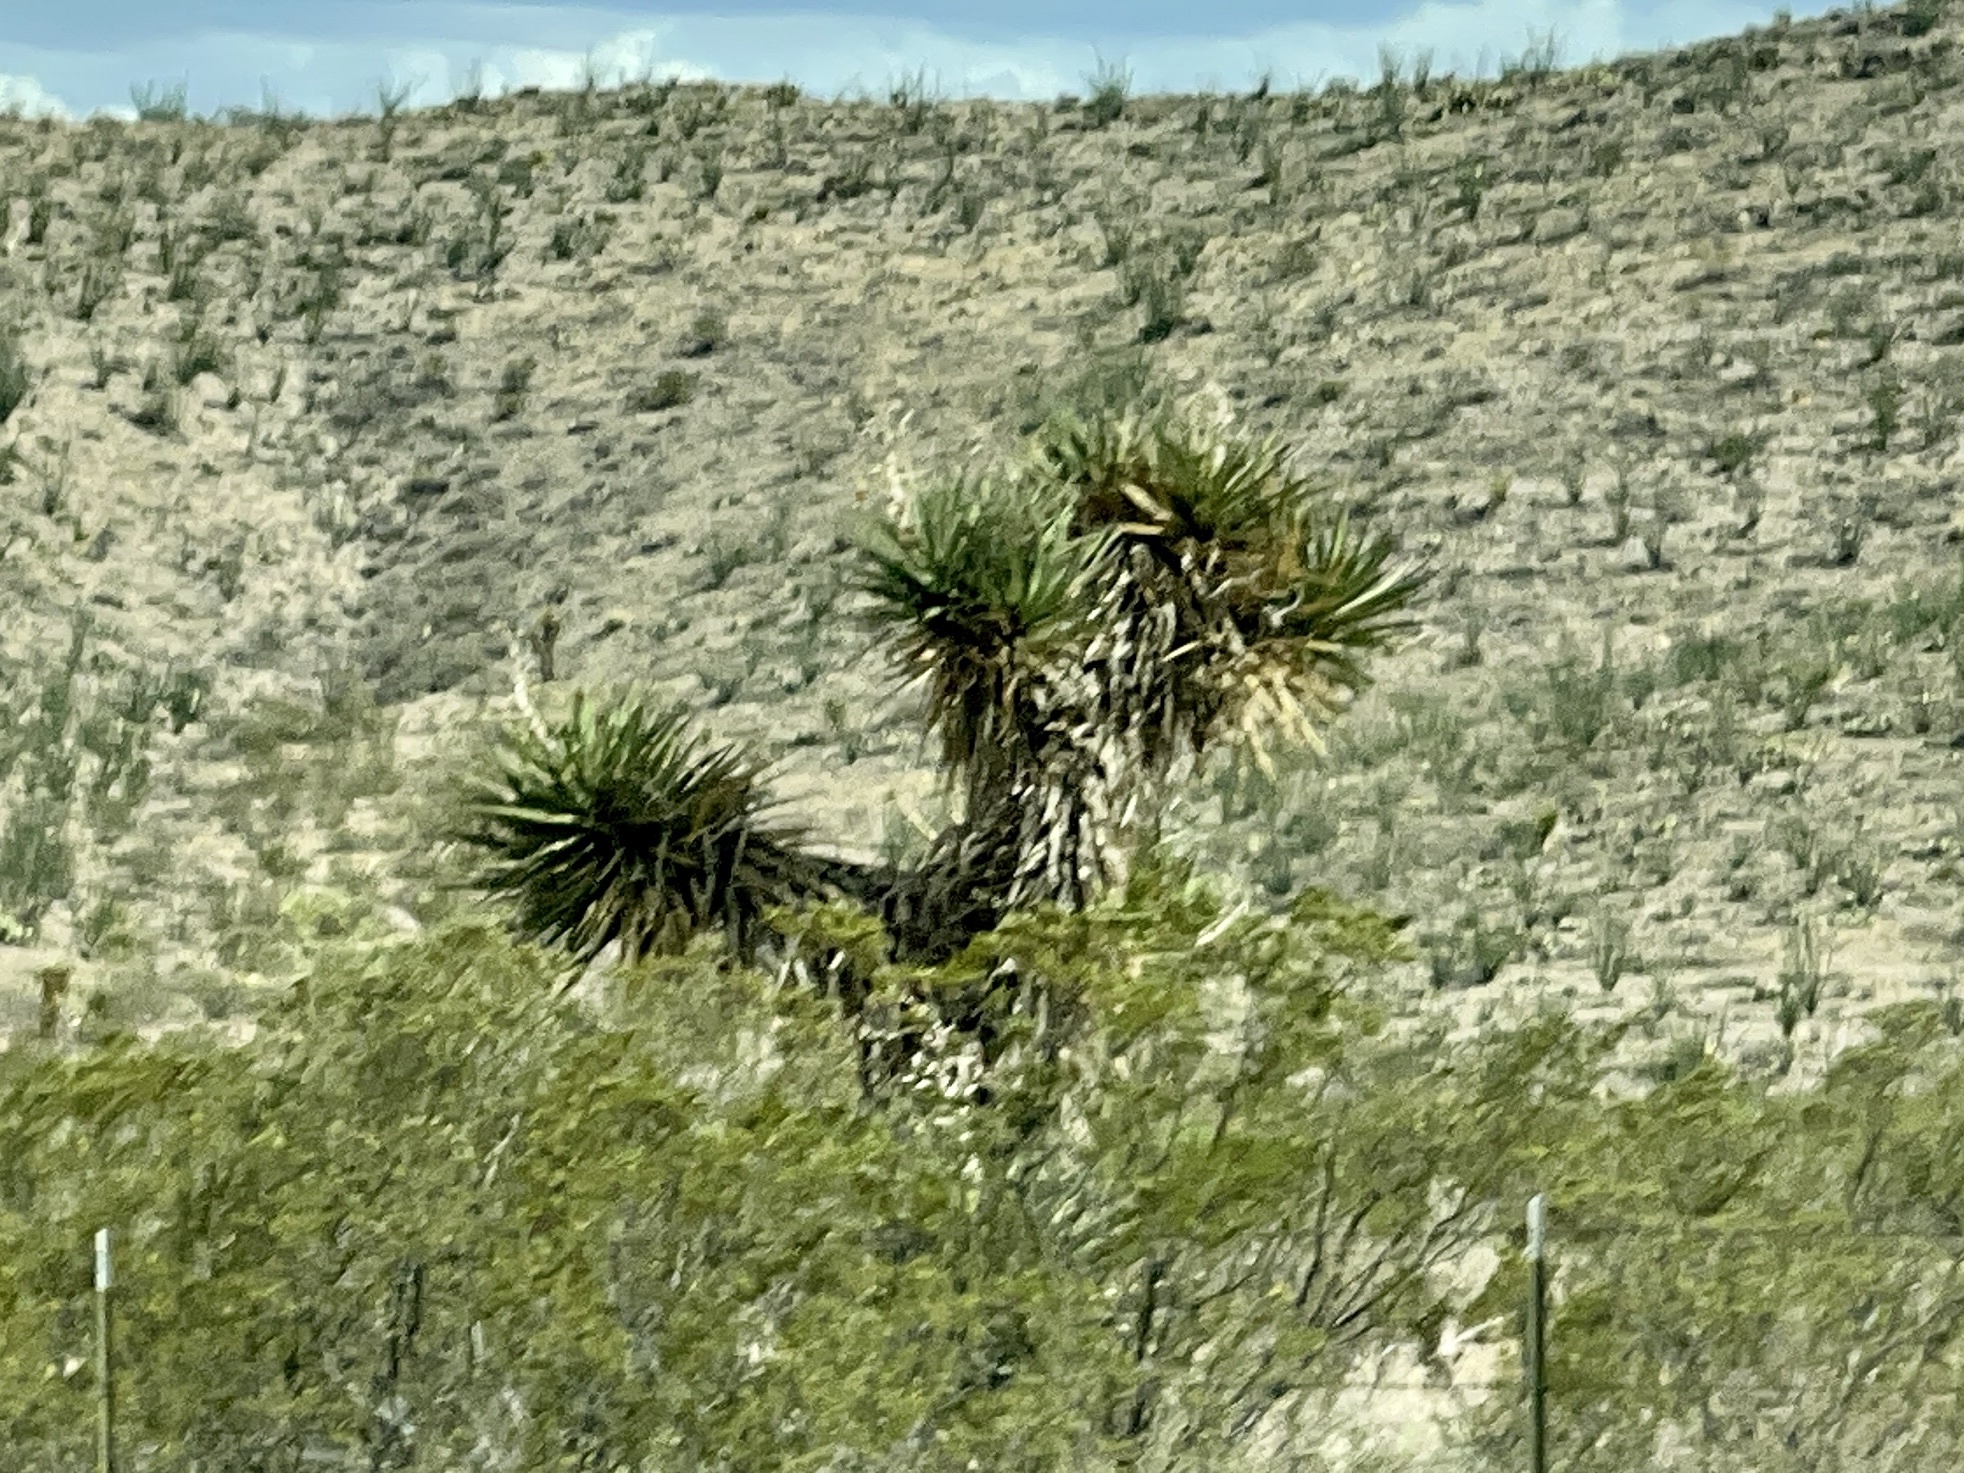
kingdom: Plantae
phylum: Tracheophyta
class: Liliopsida
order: Asparagales
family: Asparagaceae
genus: Yucca
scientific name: Yucca treculiana
